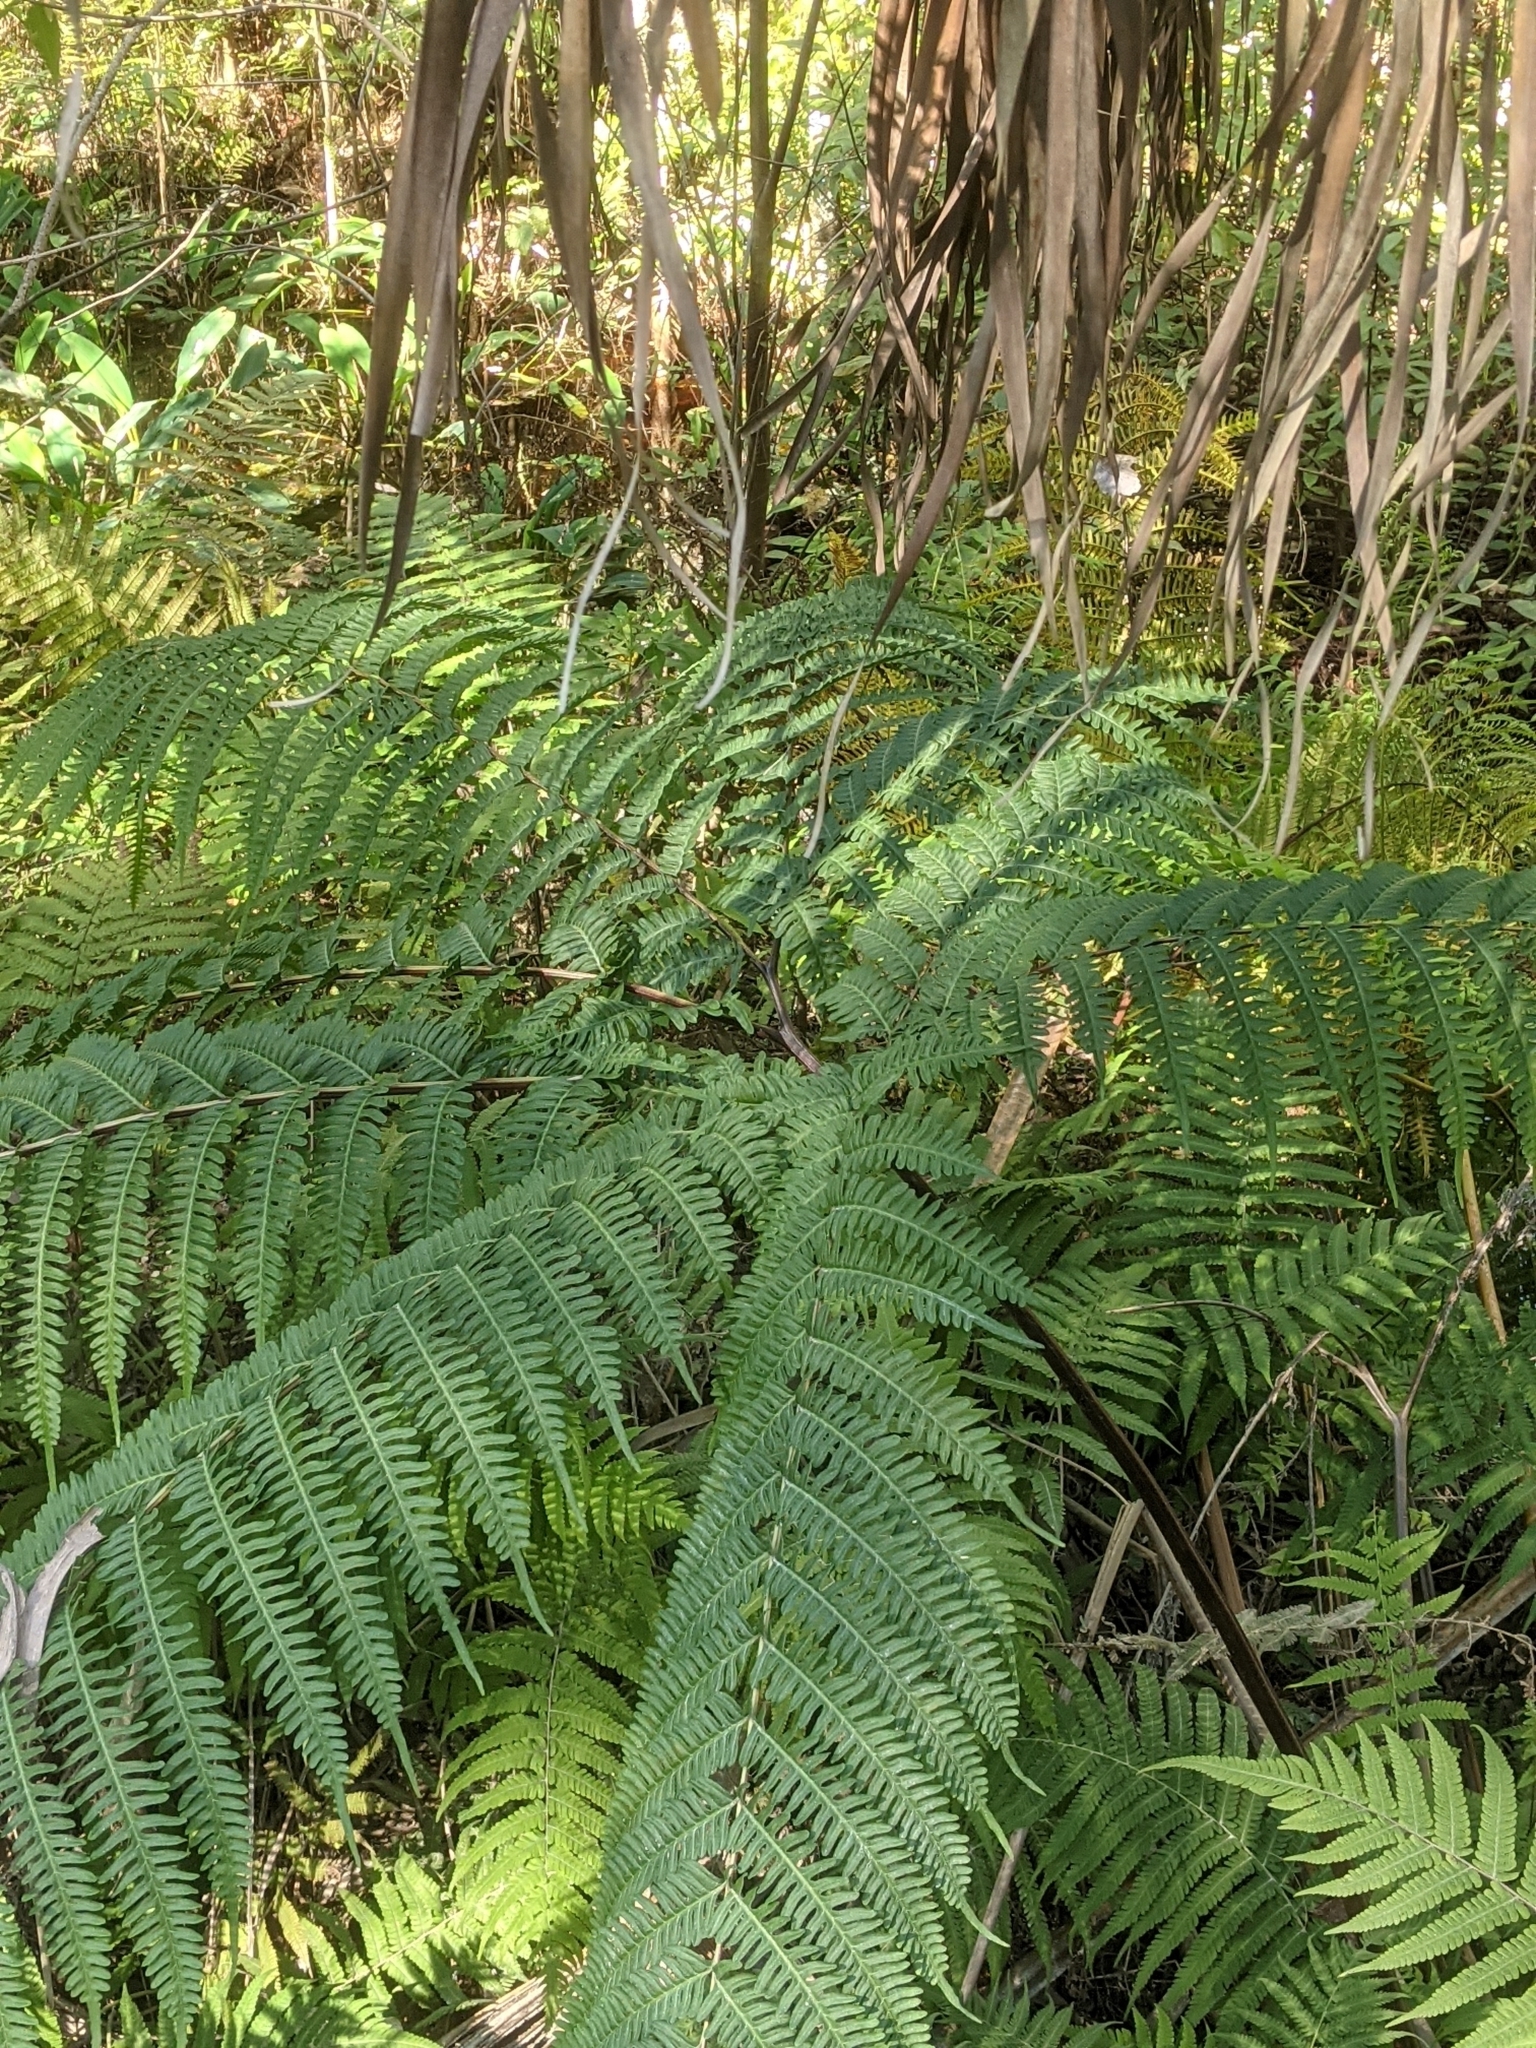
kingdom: Plantae
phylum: Tracheophyta
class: Polypodiopsida
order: Polypodiales
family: Pteridaceae
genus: Pteris
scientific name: Pteris tripartita
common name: Giant brake
